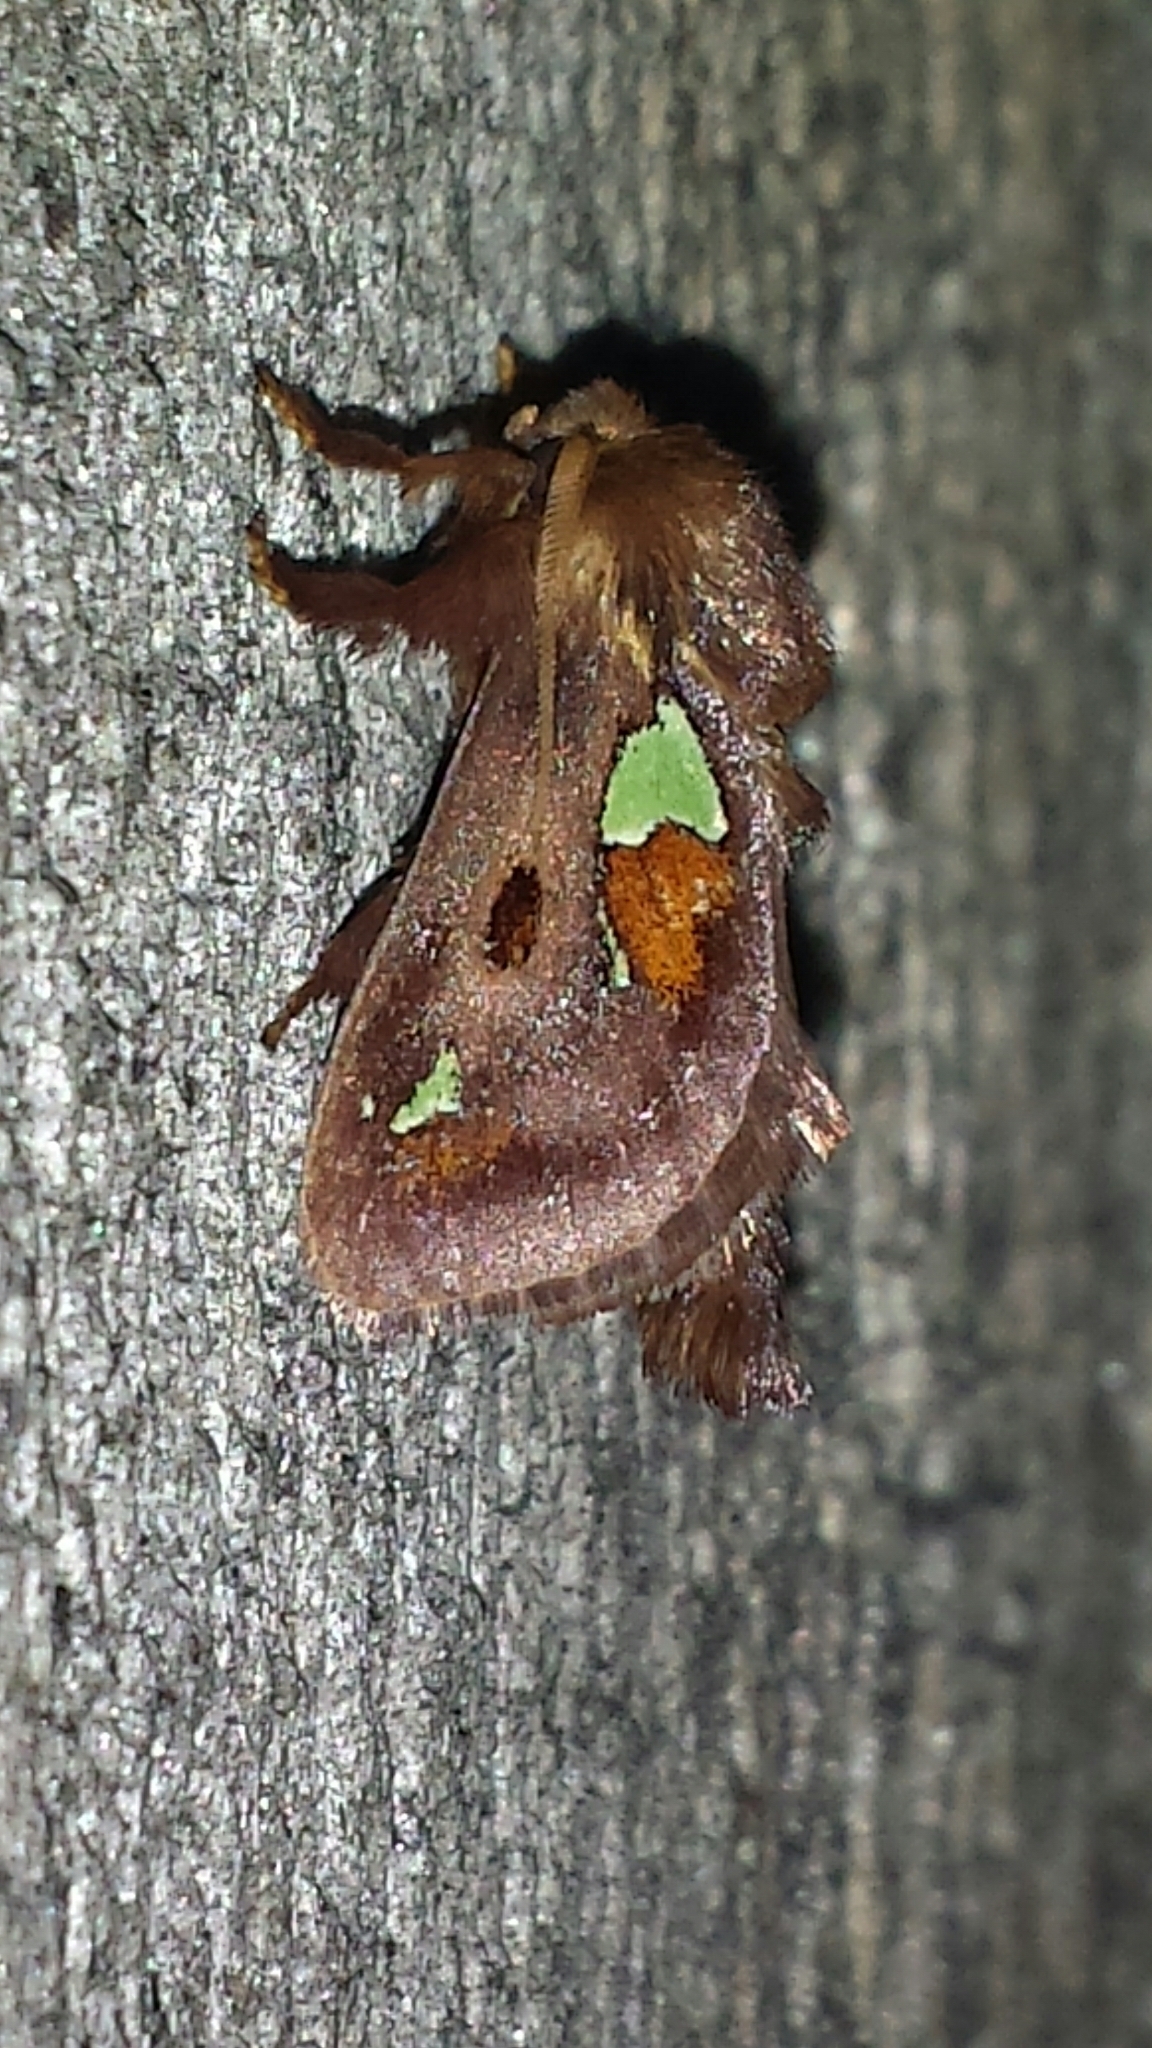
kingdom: Animalia
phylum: Arthropoda
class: Insecta
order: Lepidoptera
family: Limacodidae
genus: Euclea
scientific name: Euclea delphinii
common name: Spiny oak-slug moth
